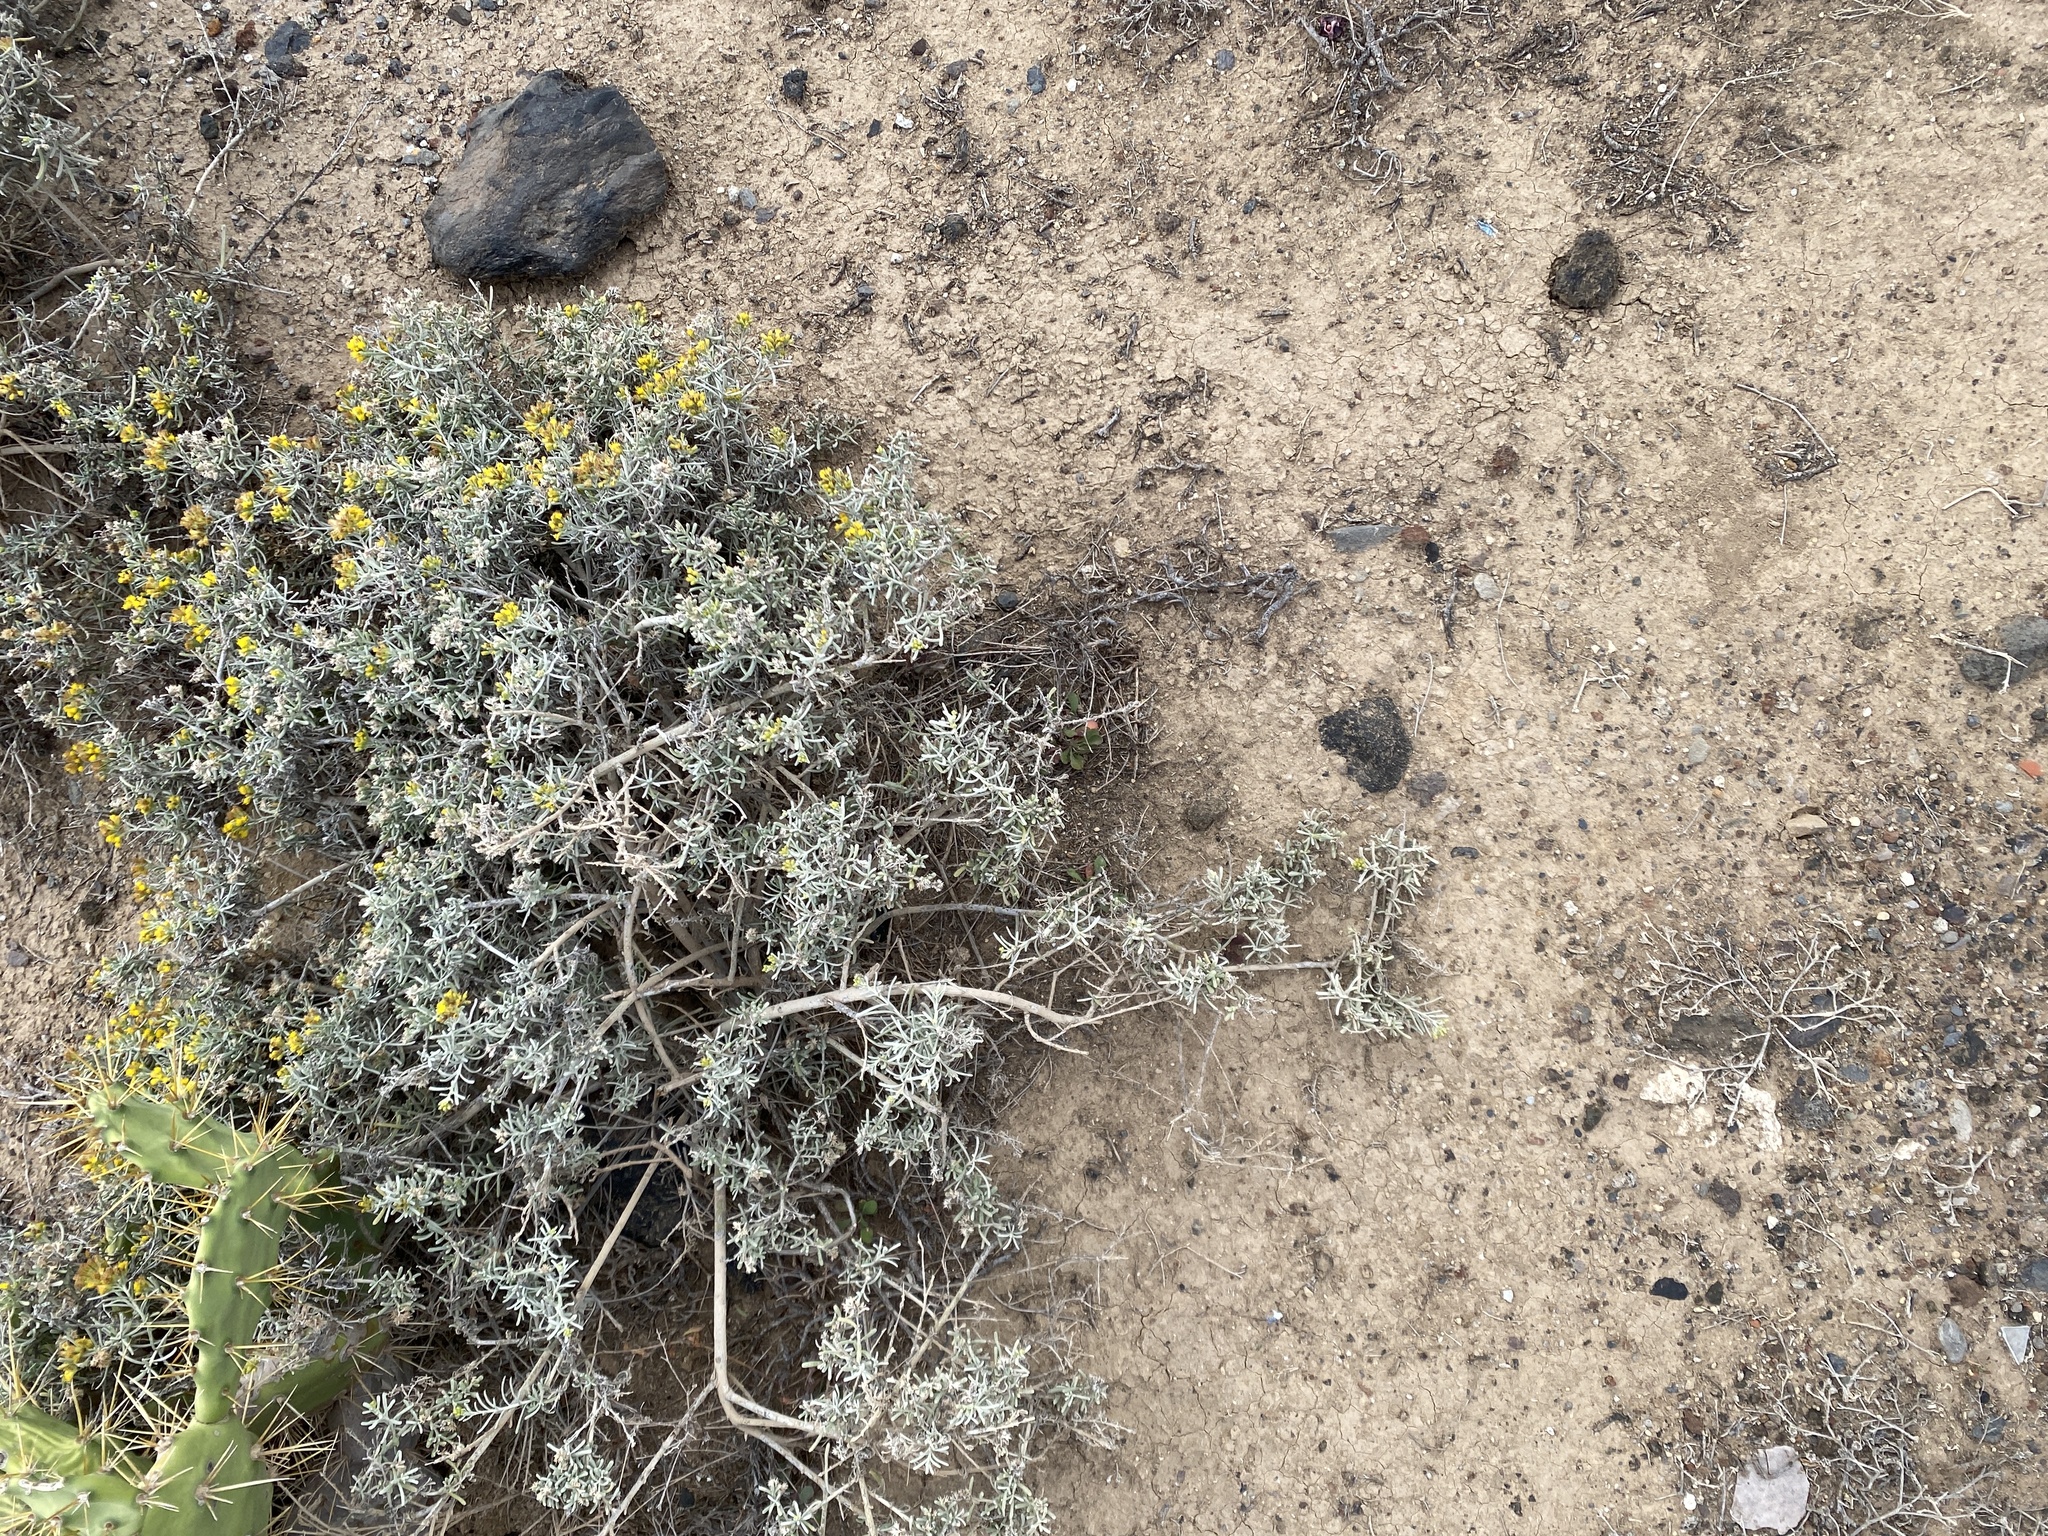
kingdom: Plantae
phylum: Tracheophyta
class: Magnoliopsida
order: Asterales
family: Asteraceae
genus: Schizogyne
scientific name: Schizogyne sericea
